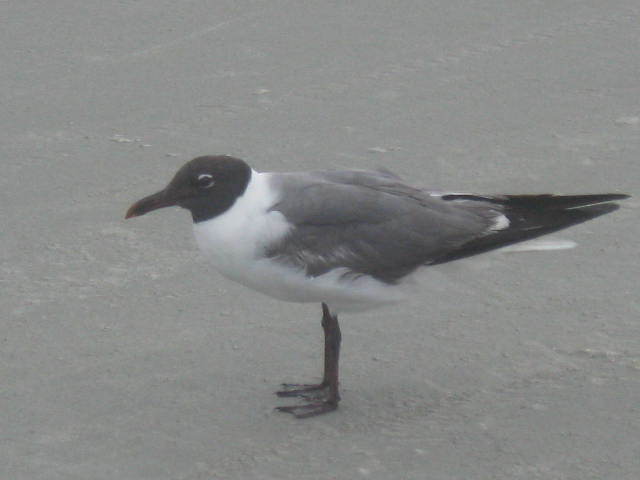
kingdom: Animalia
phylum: Chordata
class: Aves
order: Charadriiformes
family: Laridae
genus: Leucophaeus
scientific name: Leucophaeus atricilla
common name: Laughing gull
